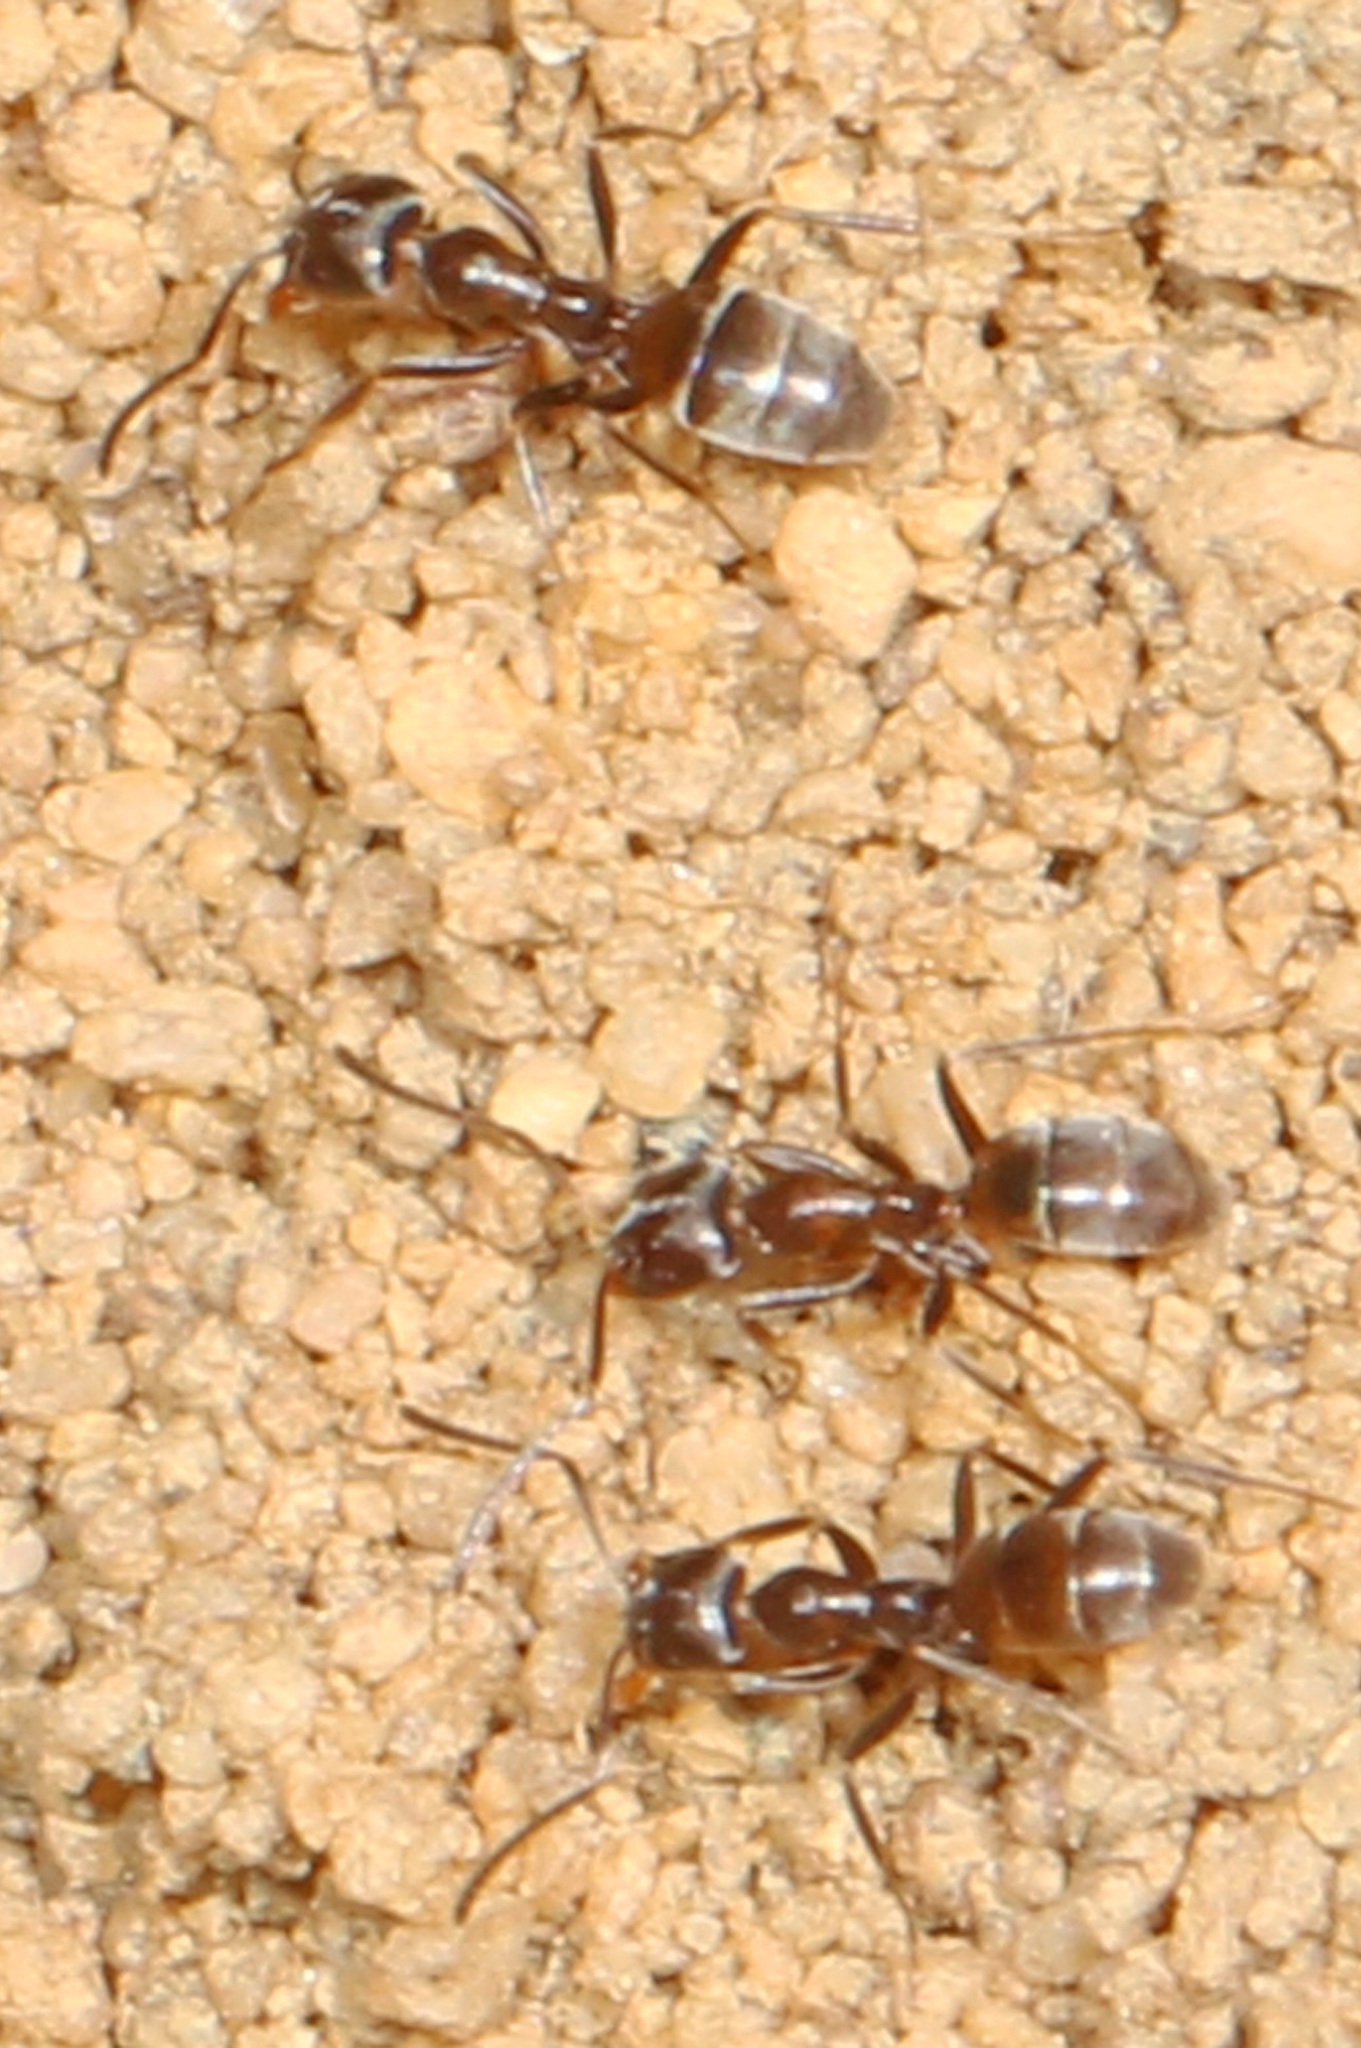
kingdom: Animalia
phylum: Arthropoda
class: Insecta
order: Hymenoptera
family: Formicidae
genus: Tapinoma
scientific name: Tapinoma sessile
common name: Odorous house ant
